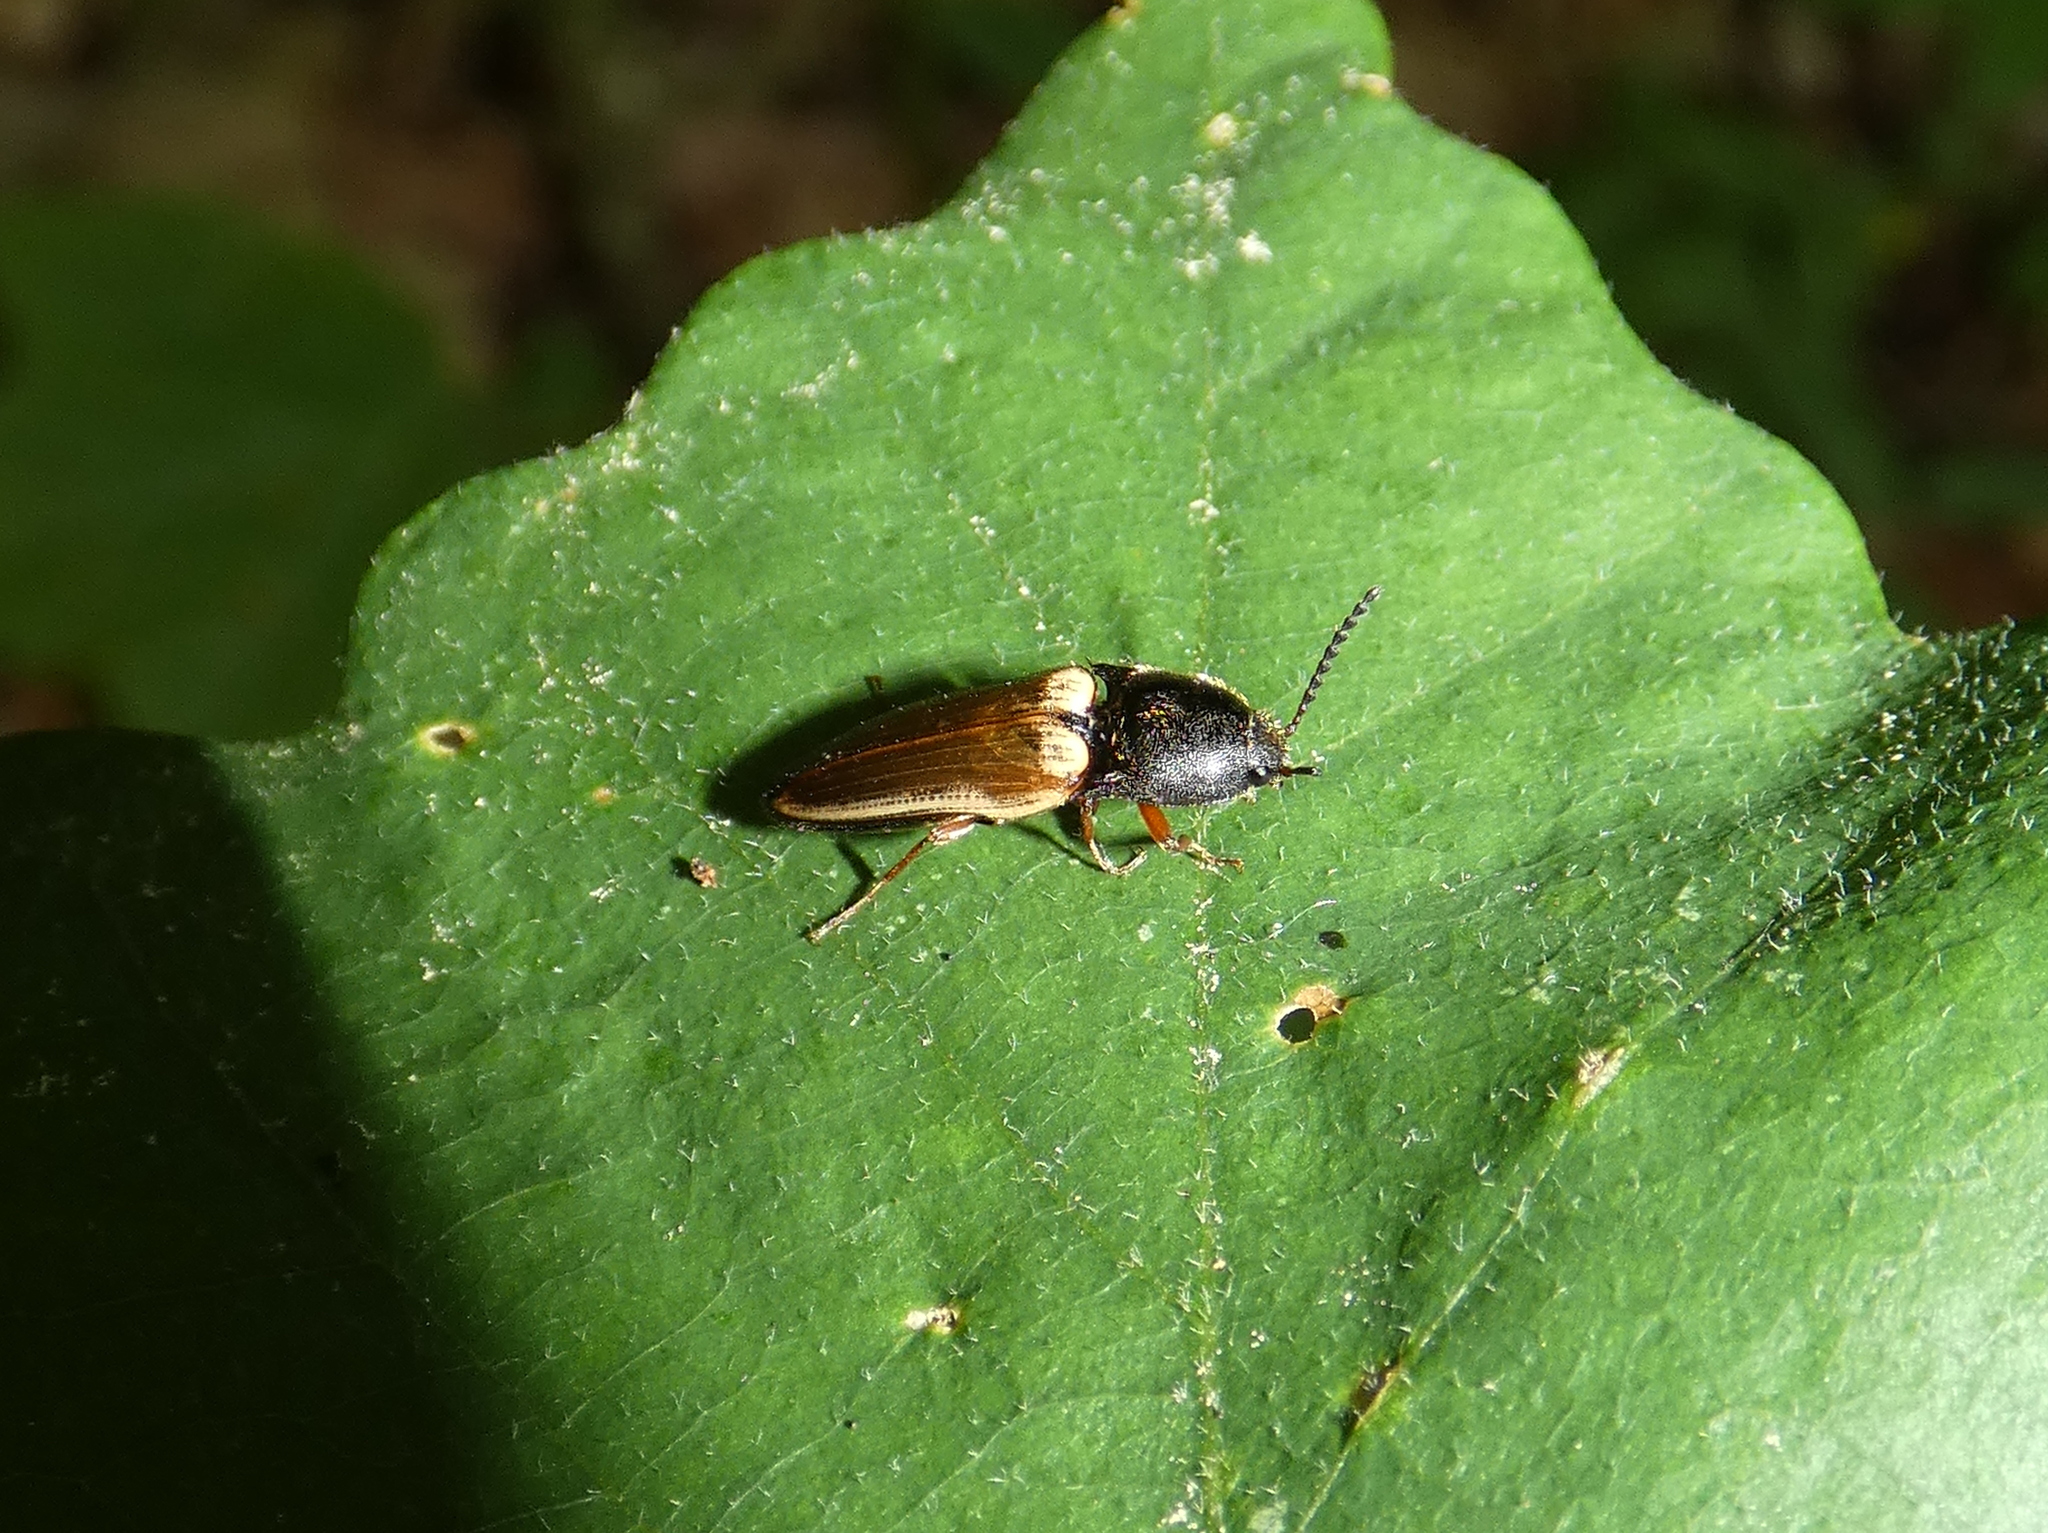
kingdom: Animalia
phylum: Arthropoda
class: Insecta
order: Coleoptera
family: Elateridae
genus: Ampedus
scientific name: Ampedus nigricollis
